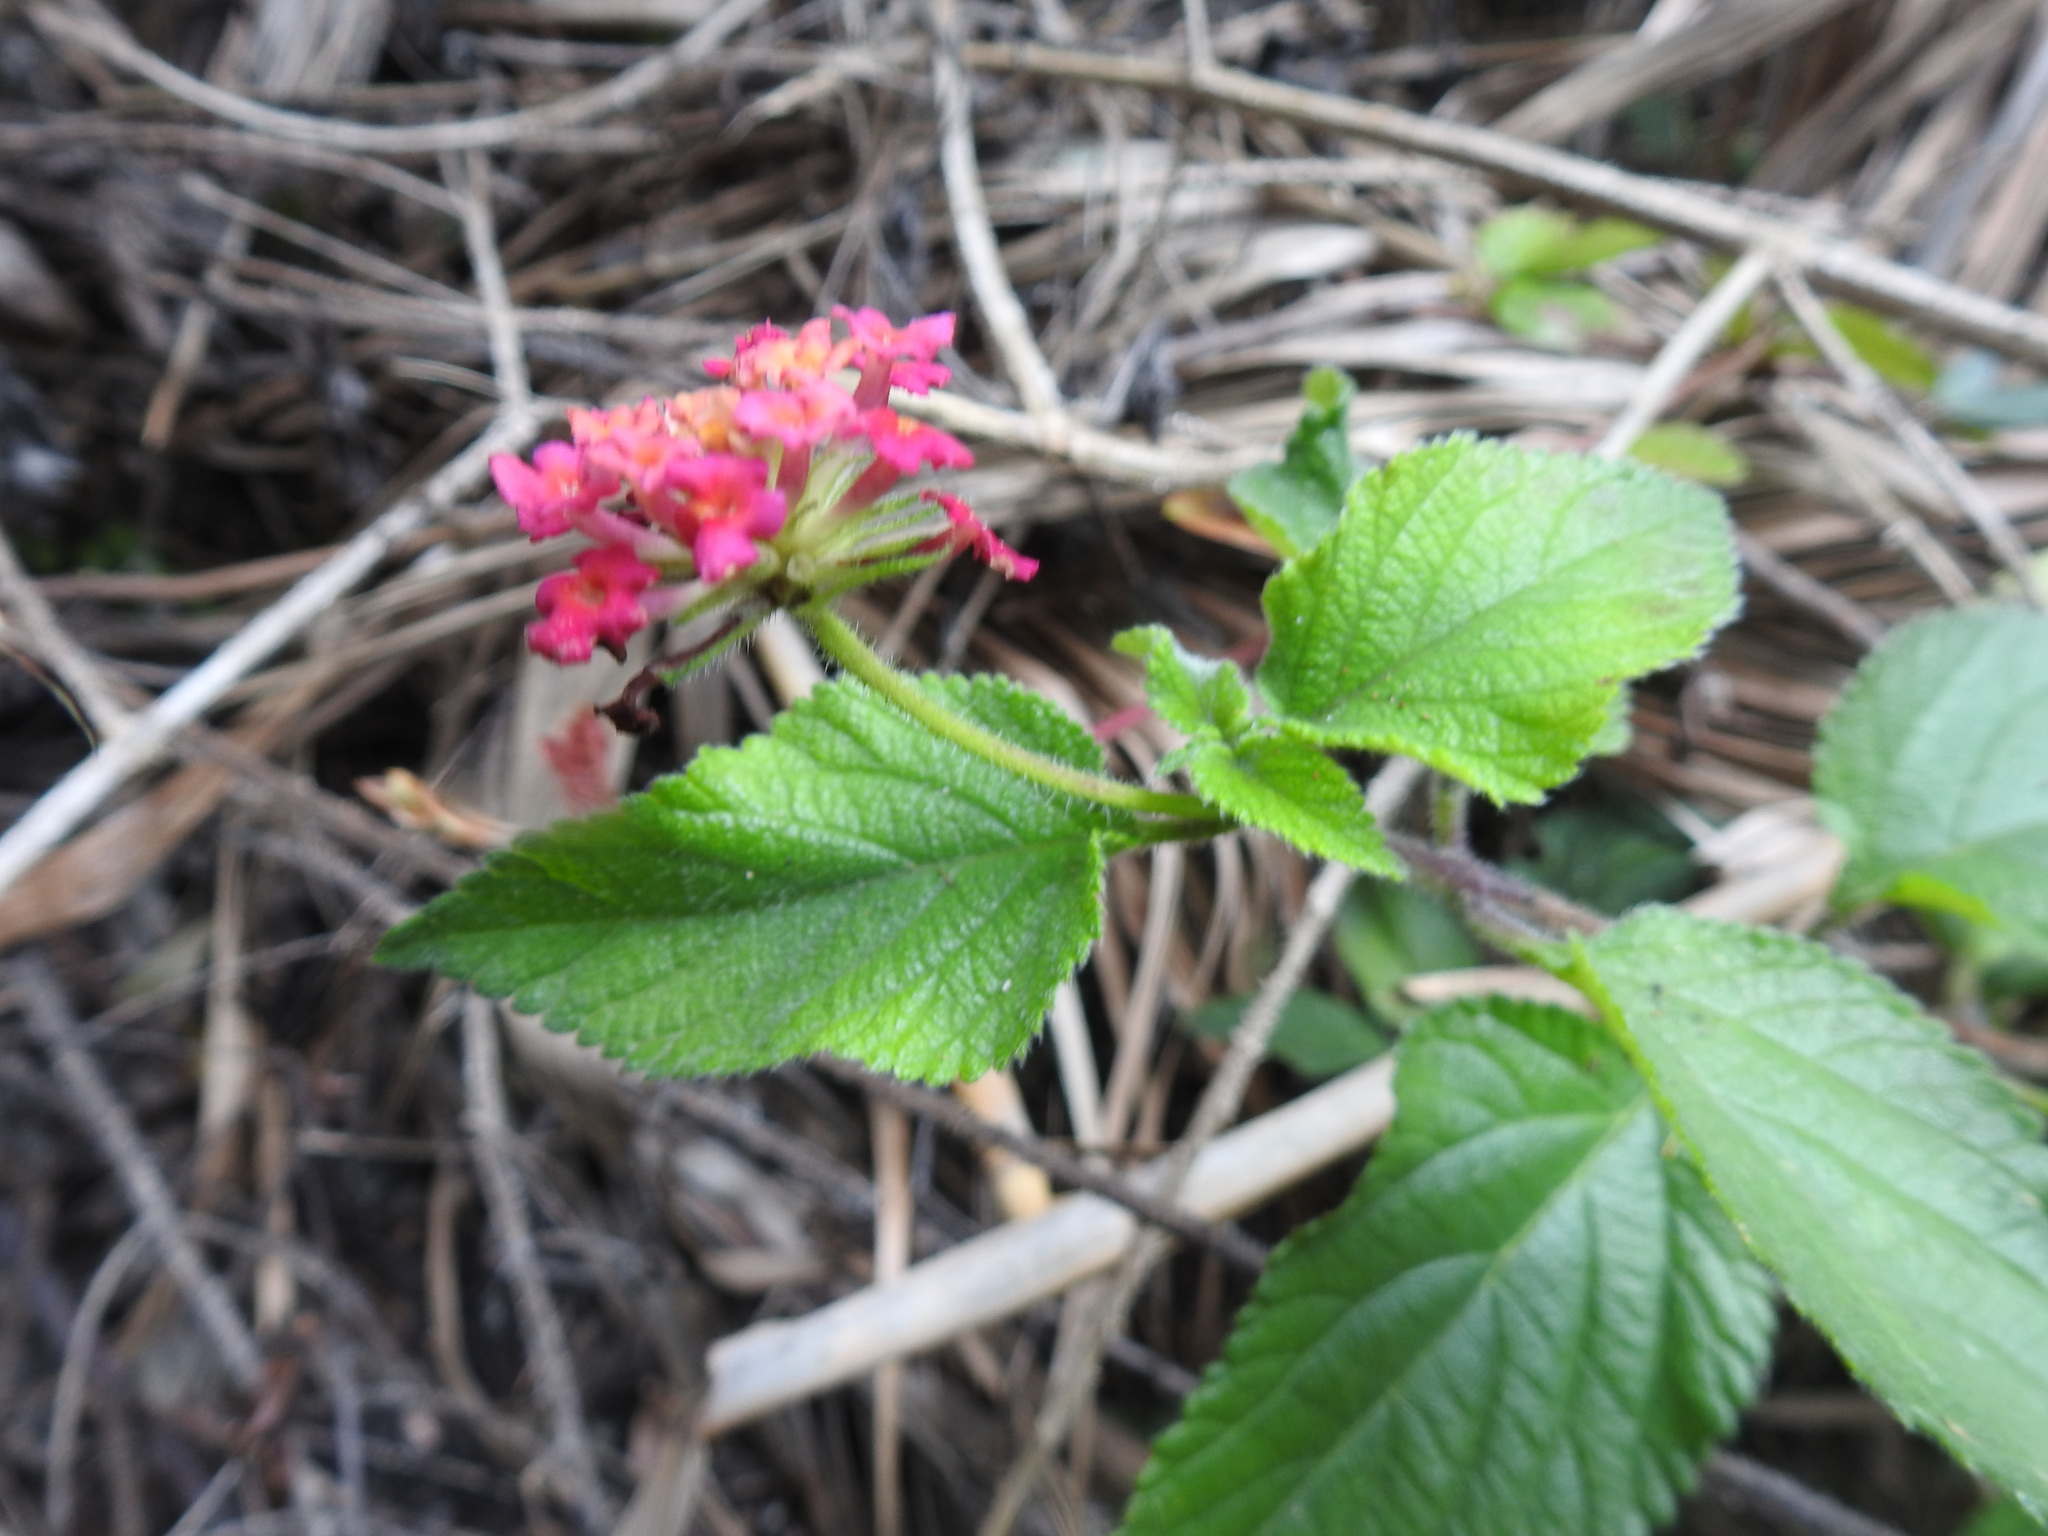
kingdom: Plantae
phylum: Tracheophyta
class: Magnoliopsida
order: Lamiales
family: Verbenaceae
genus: Lantana
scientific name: Lantana camara
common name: Lantana
